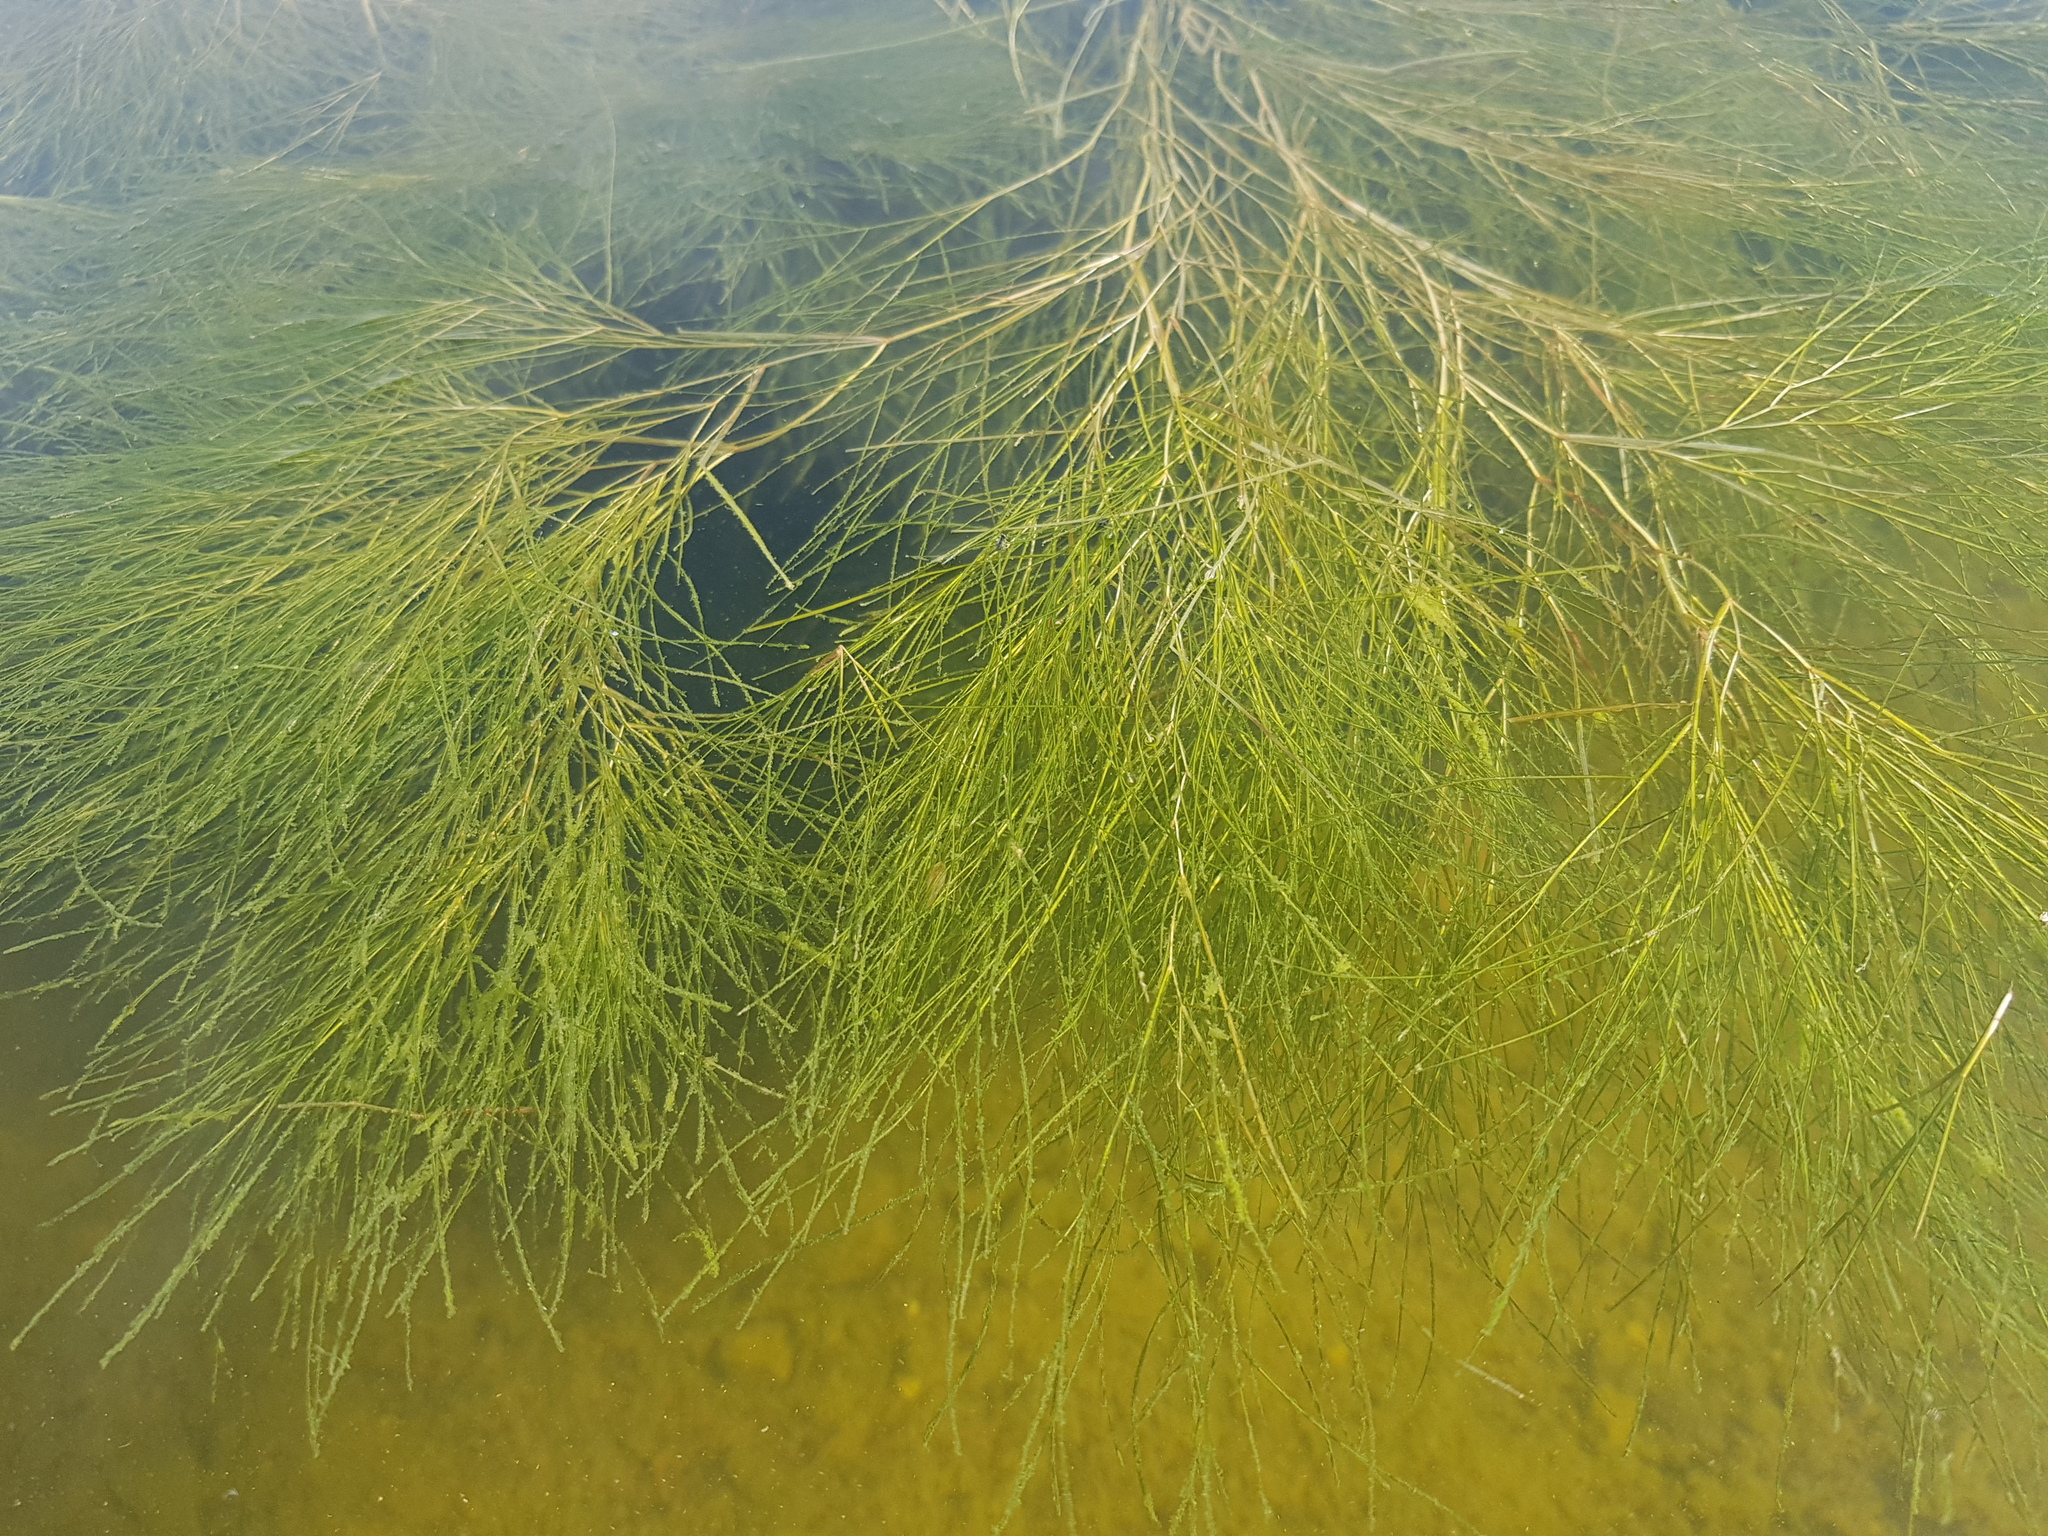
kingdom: Plantae
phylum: Tracheophyta
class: Liliopsida
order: Alismatales
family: Potamogetonaceae
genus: Stuckenia
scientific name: Stuckenia filiformis
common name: Alpine thread-leaved pondweed
